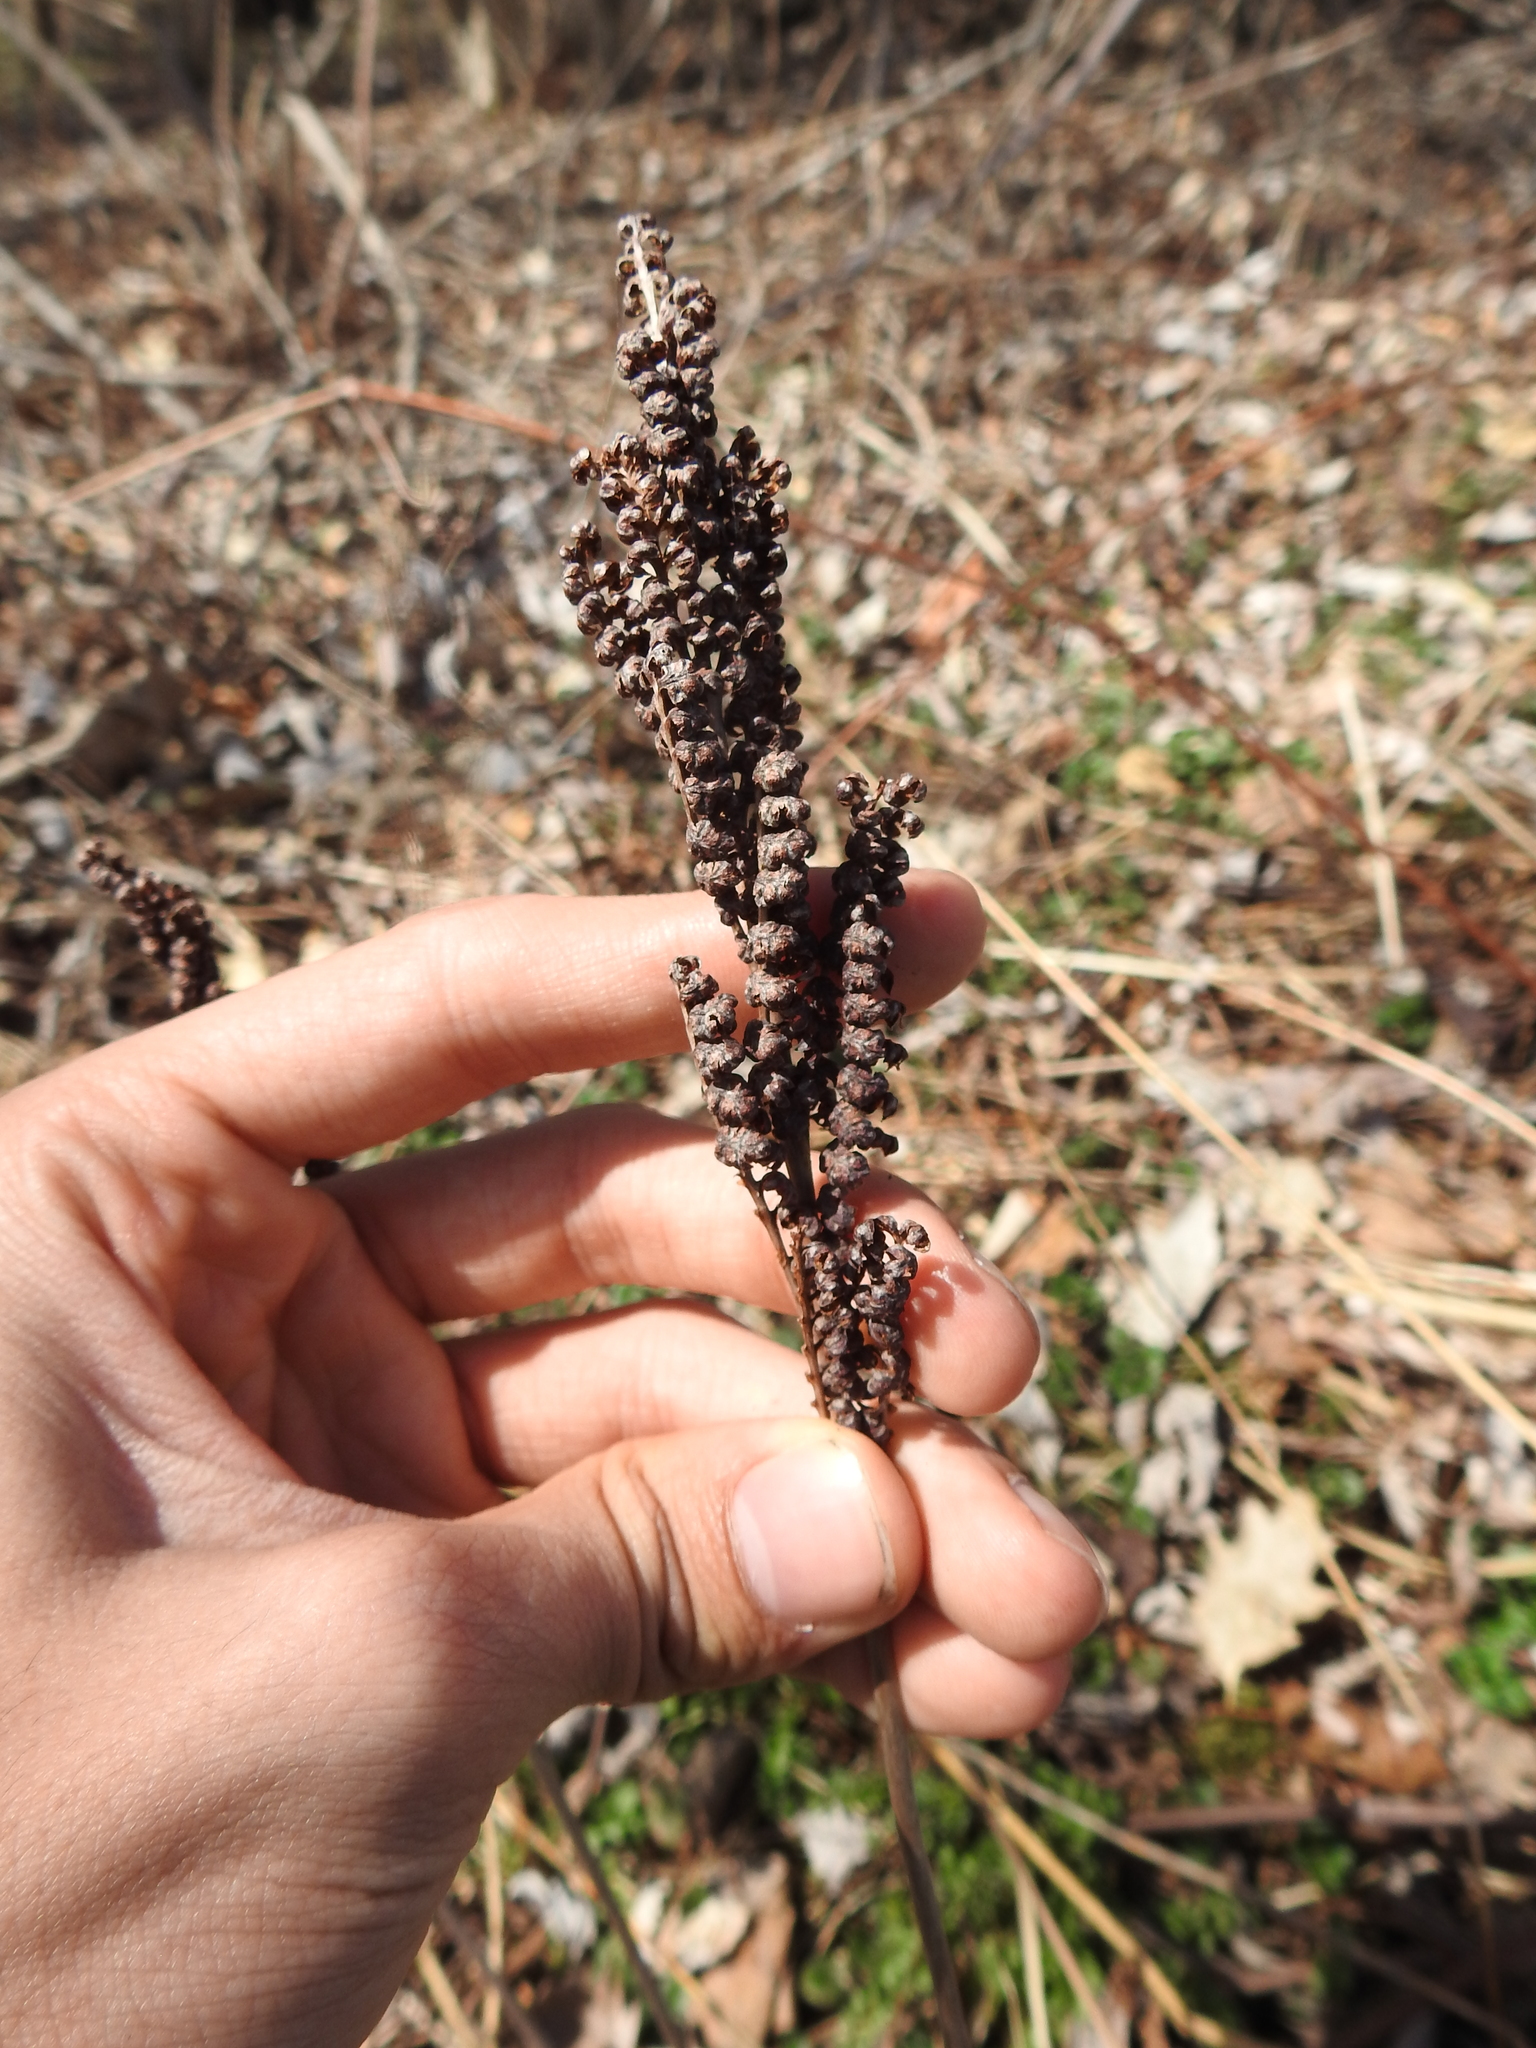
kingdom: Plantae
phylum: Tracheophyta
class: Polypodiopsida
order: Polypodiales
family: Onocleaceae
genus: Onoclea
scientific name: Onoclea sensibilis
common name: Sensitive fern
